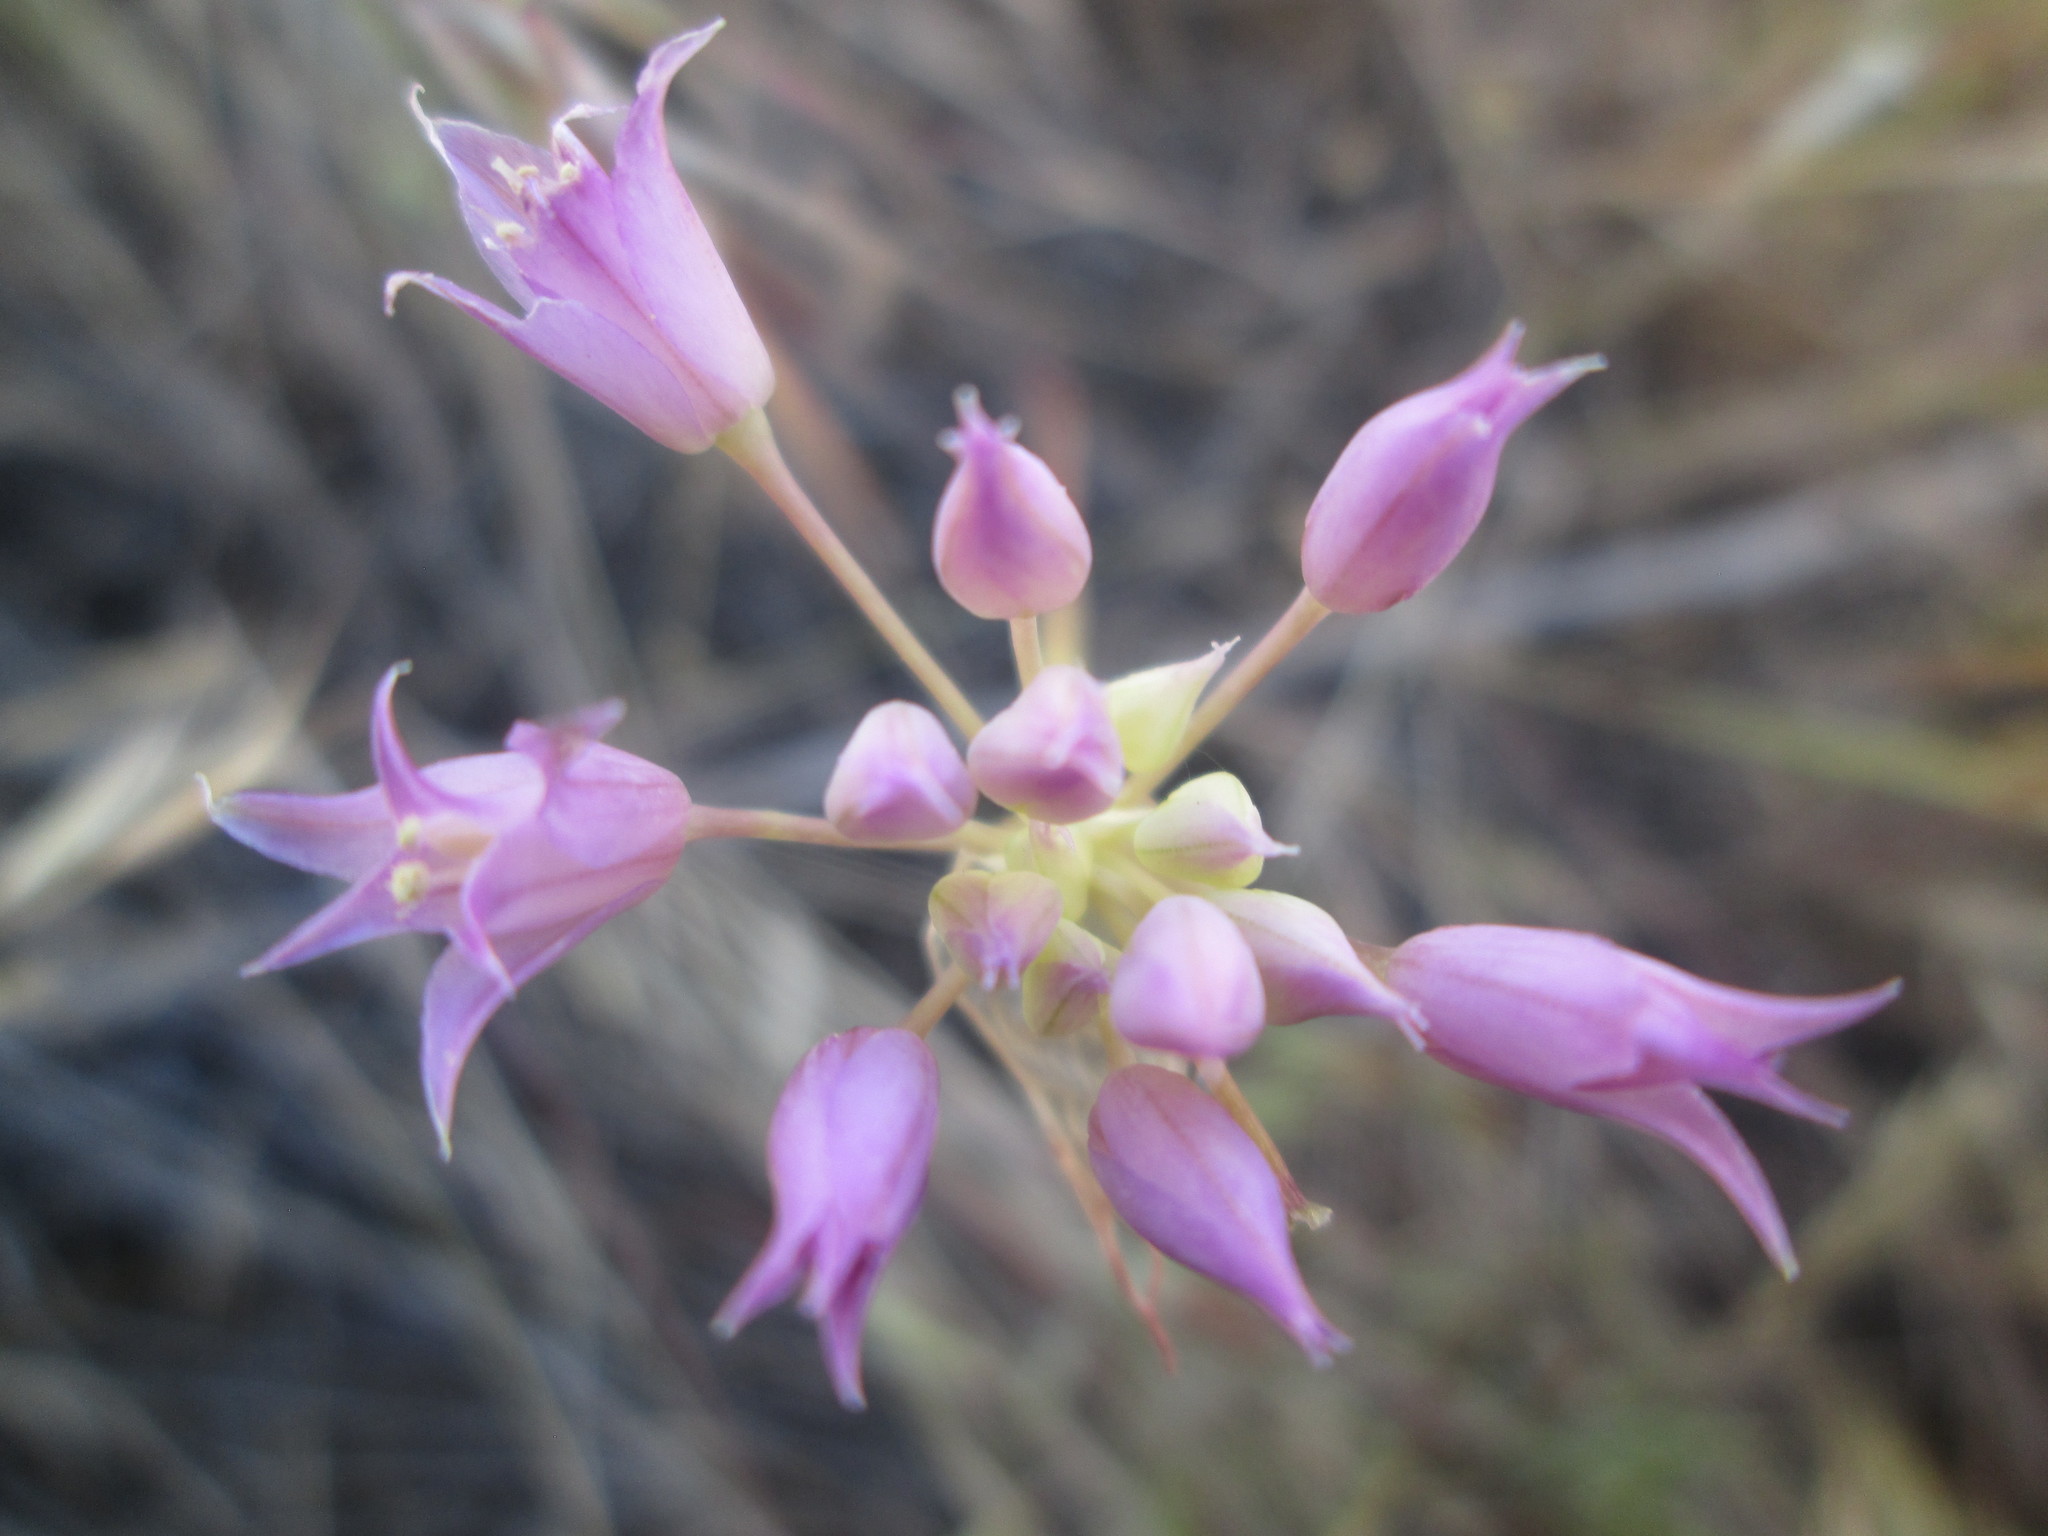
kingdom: Plantae
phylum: Tracheophyta
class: Liliopsida
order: Asparagales
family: Amaryllidaceae
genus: Allium
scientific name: Allium acuminatum
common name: Hooker's onion
